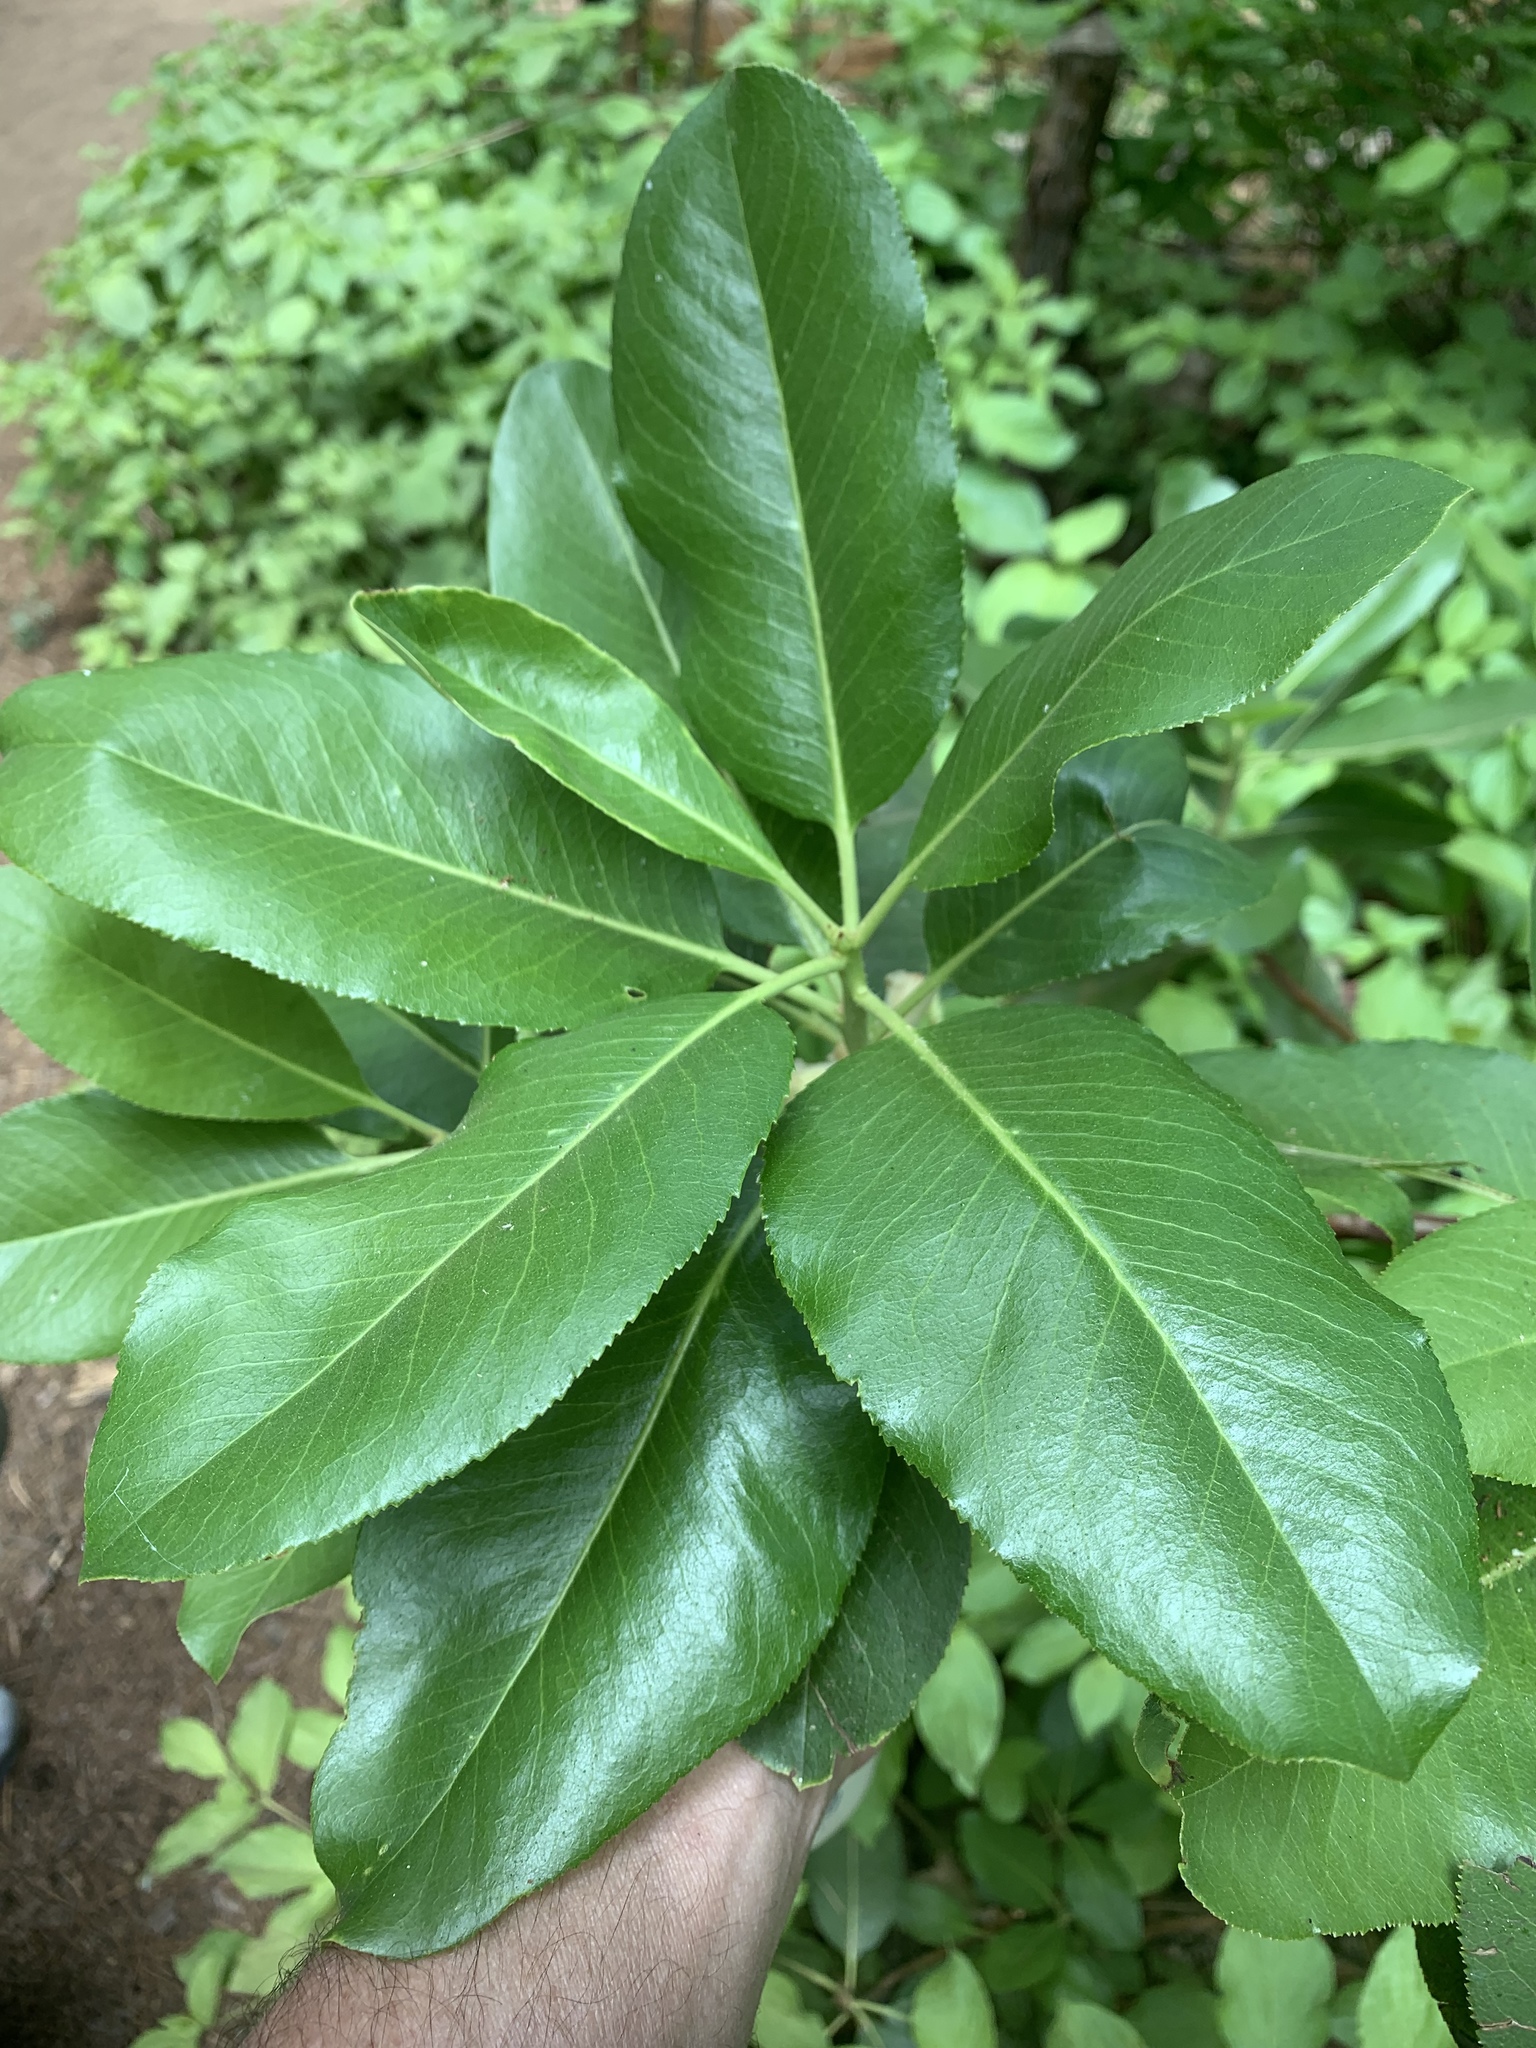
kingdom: Plantae
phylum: Tracheophyta
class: Magnoliopsida
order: Ericales
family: Ericaceae
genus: Arbutus
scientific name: Arbutus menziesii
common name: Pacific madrone
